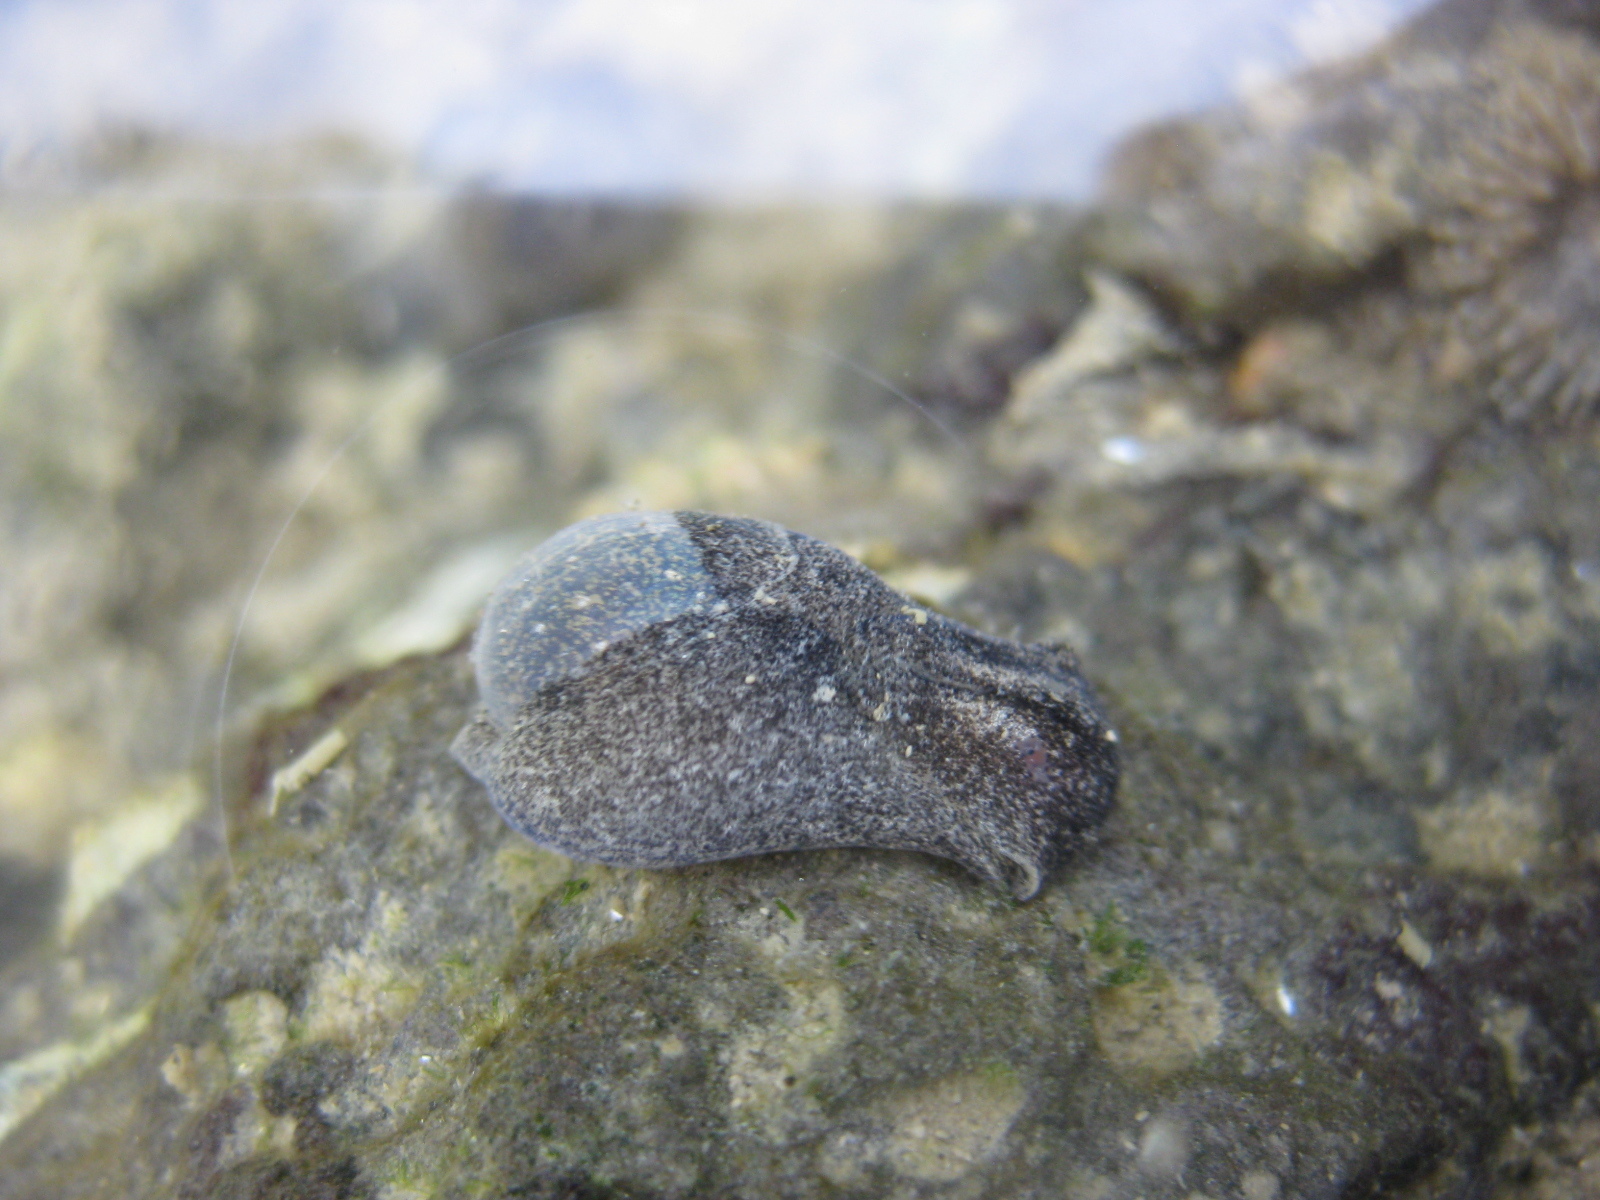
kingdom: Animalia
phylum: Mollusca
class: Gastropoda
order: Cephalaspidea
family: Haminoeidae
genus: Papawera
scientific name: Papawera zelandiae
